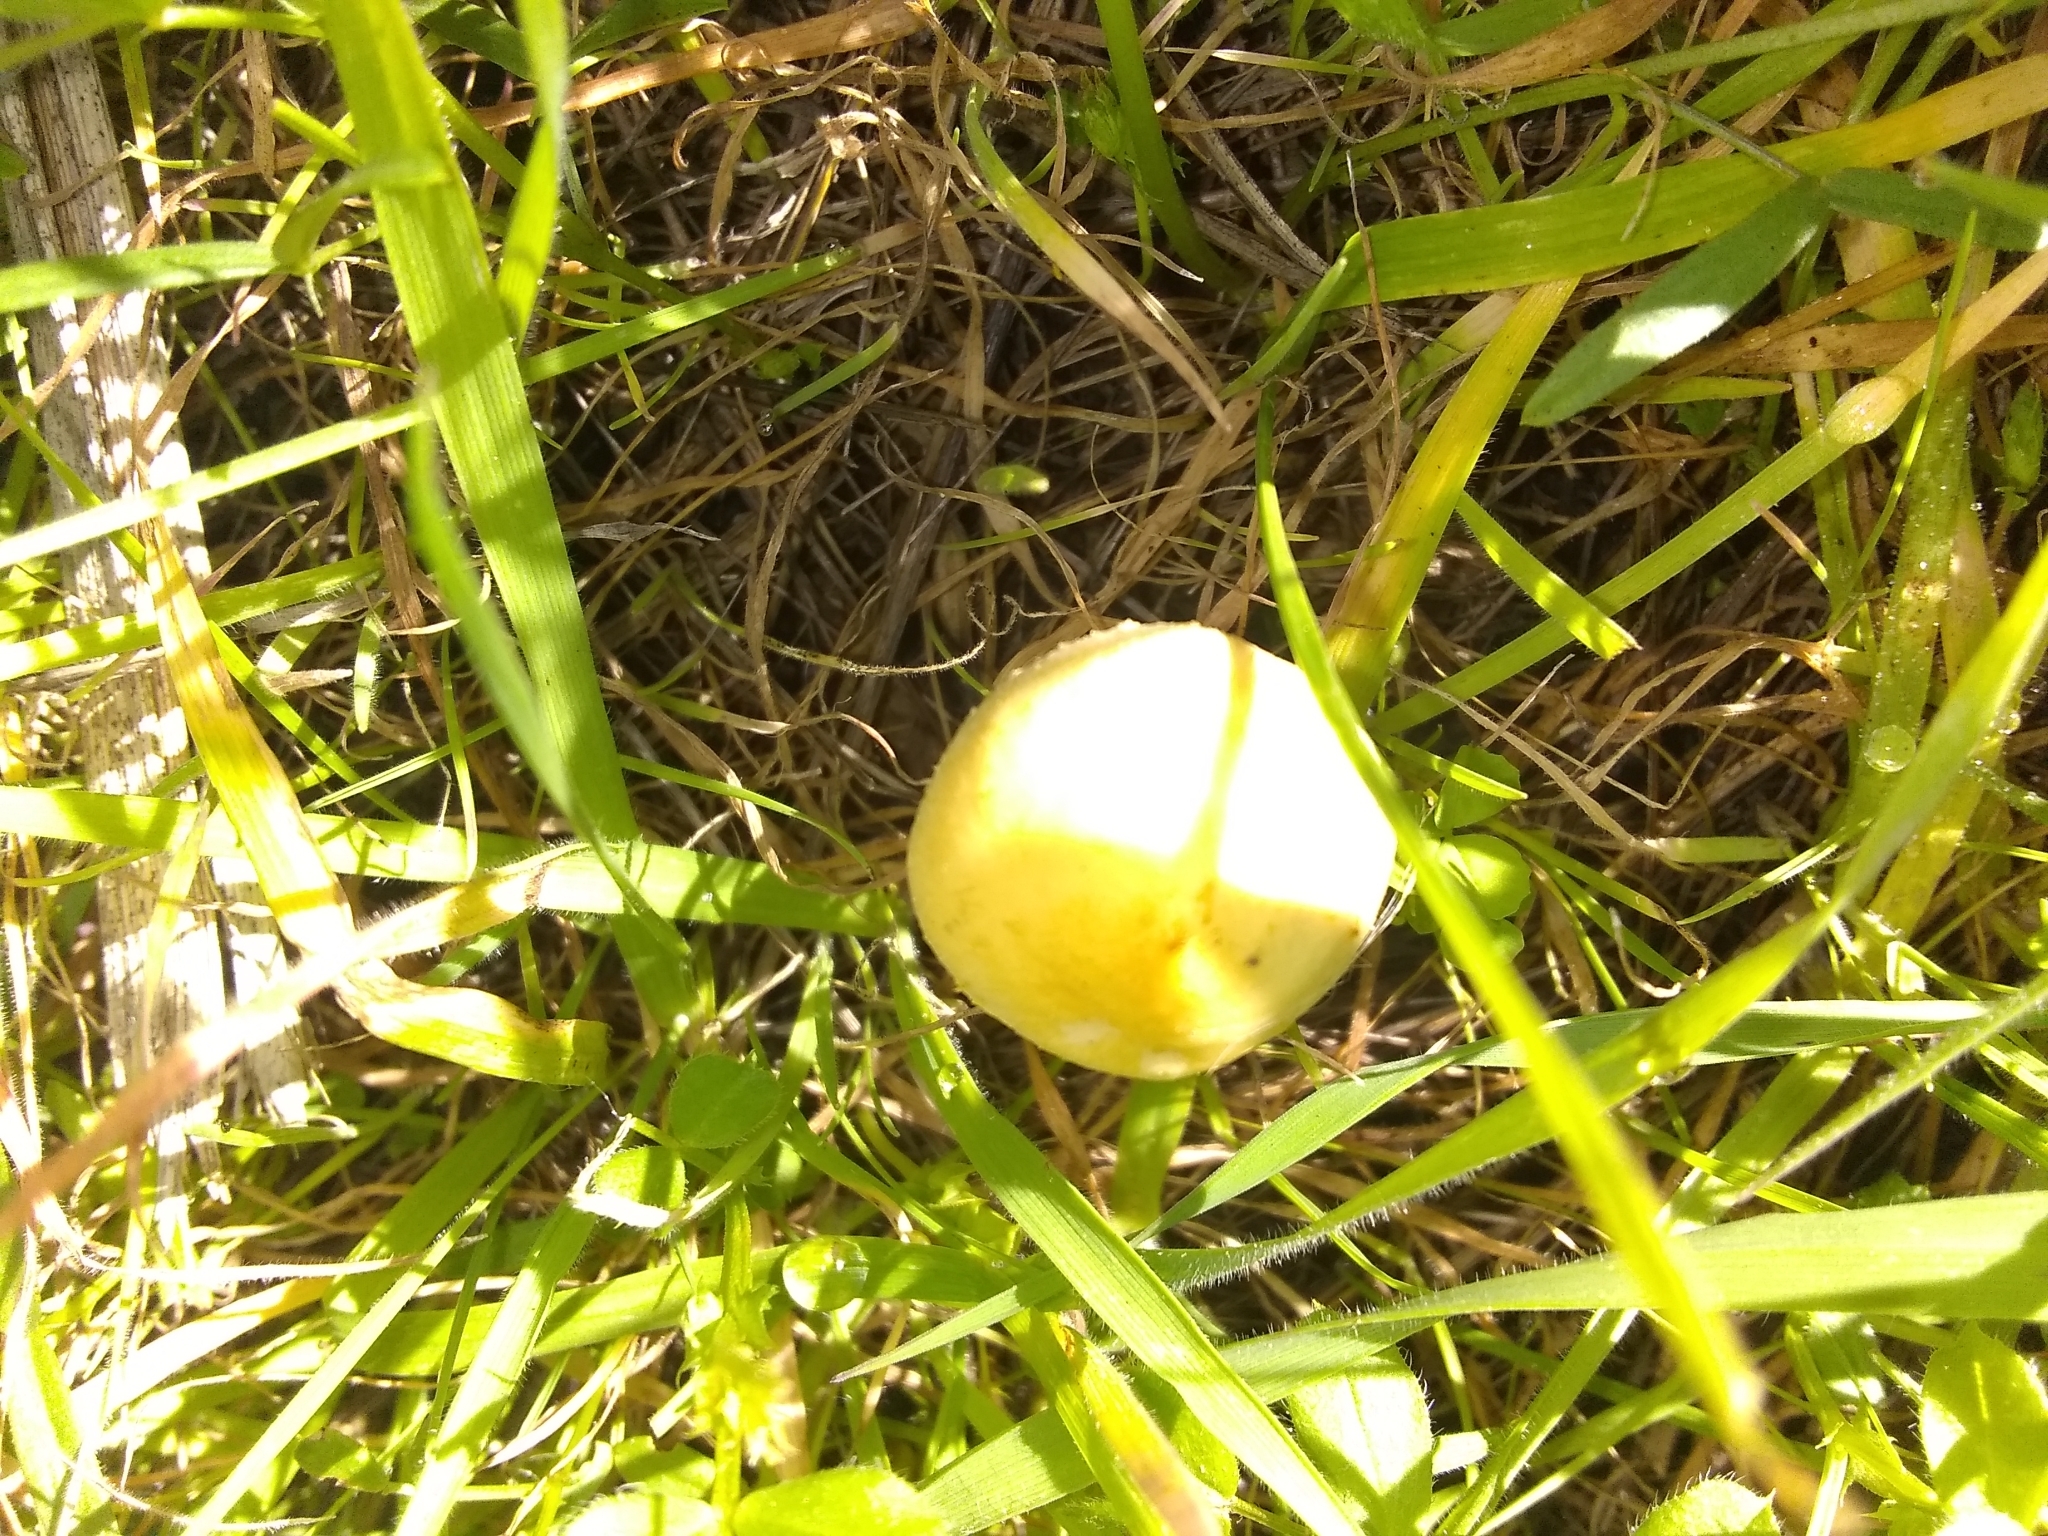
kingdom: Fungi
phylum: Basidiomycota
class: Agaricomycetes
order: Agaricales
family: Strophariaceae
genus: Leratiomyces
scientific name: Leratiomyces percevalii
